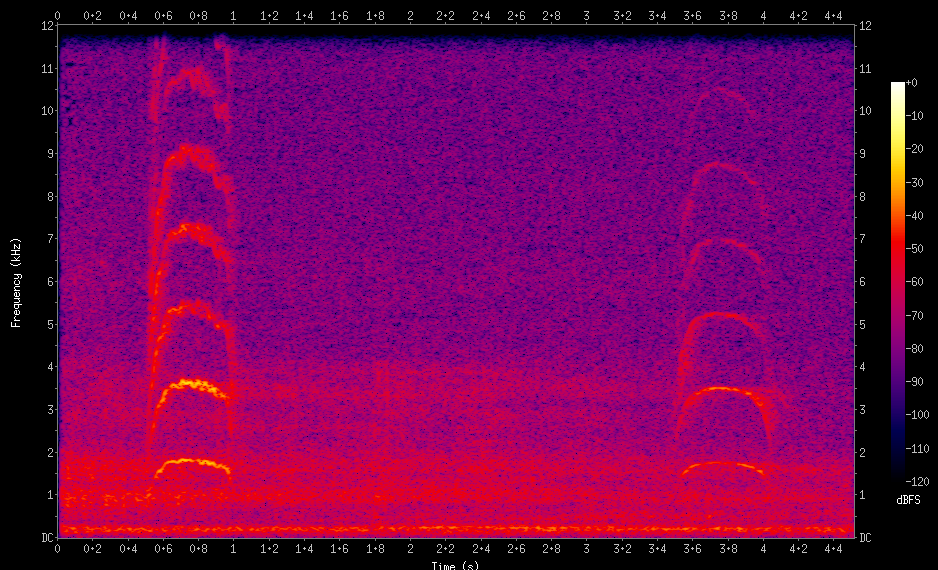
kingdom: Animalia
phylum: Chordata
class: Aves
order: Passeriformes
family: Tyrannidae
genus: Pitangus
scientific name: Pitangus sulphuratus
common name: Great kiskadee
